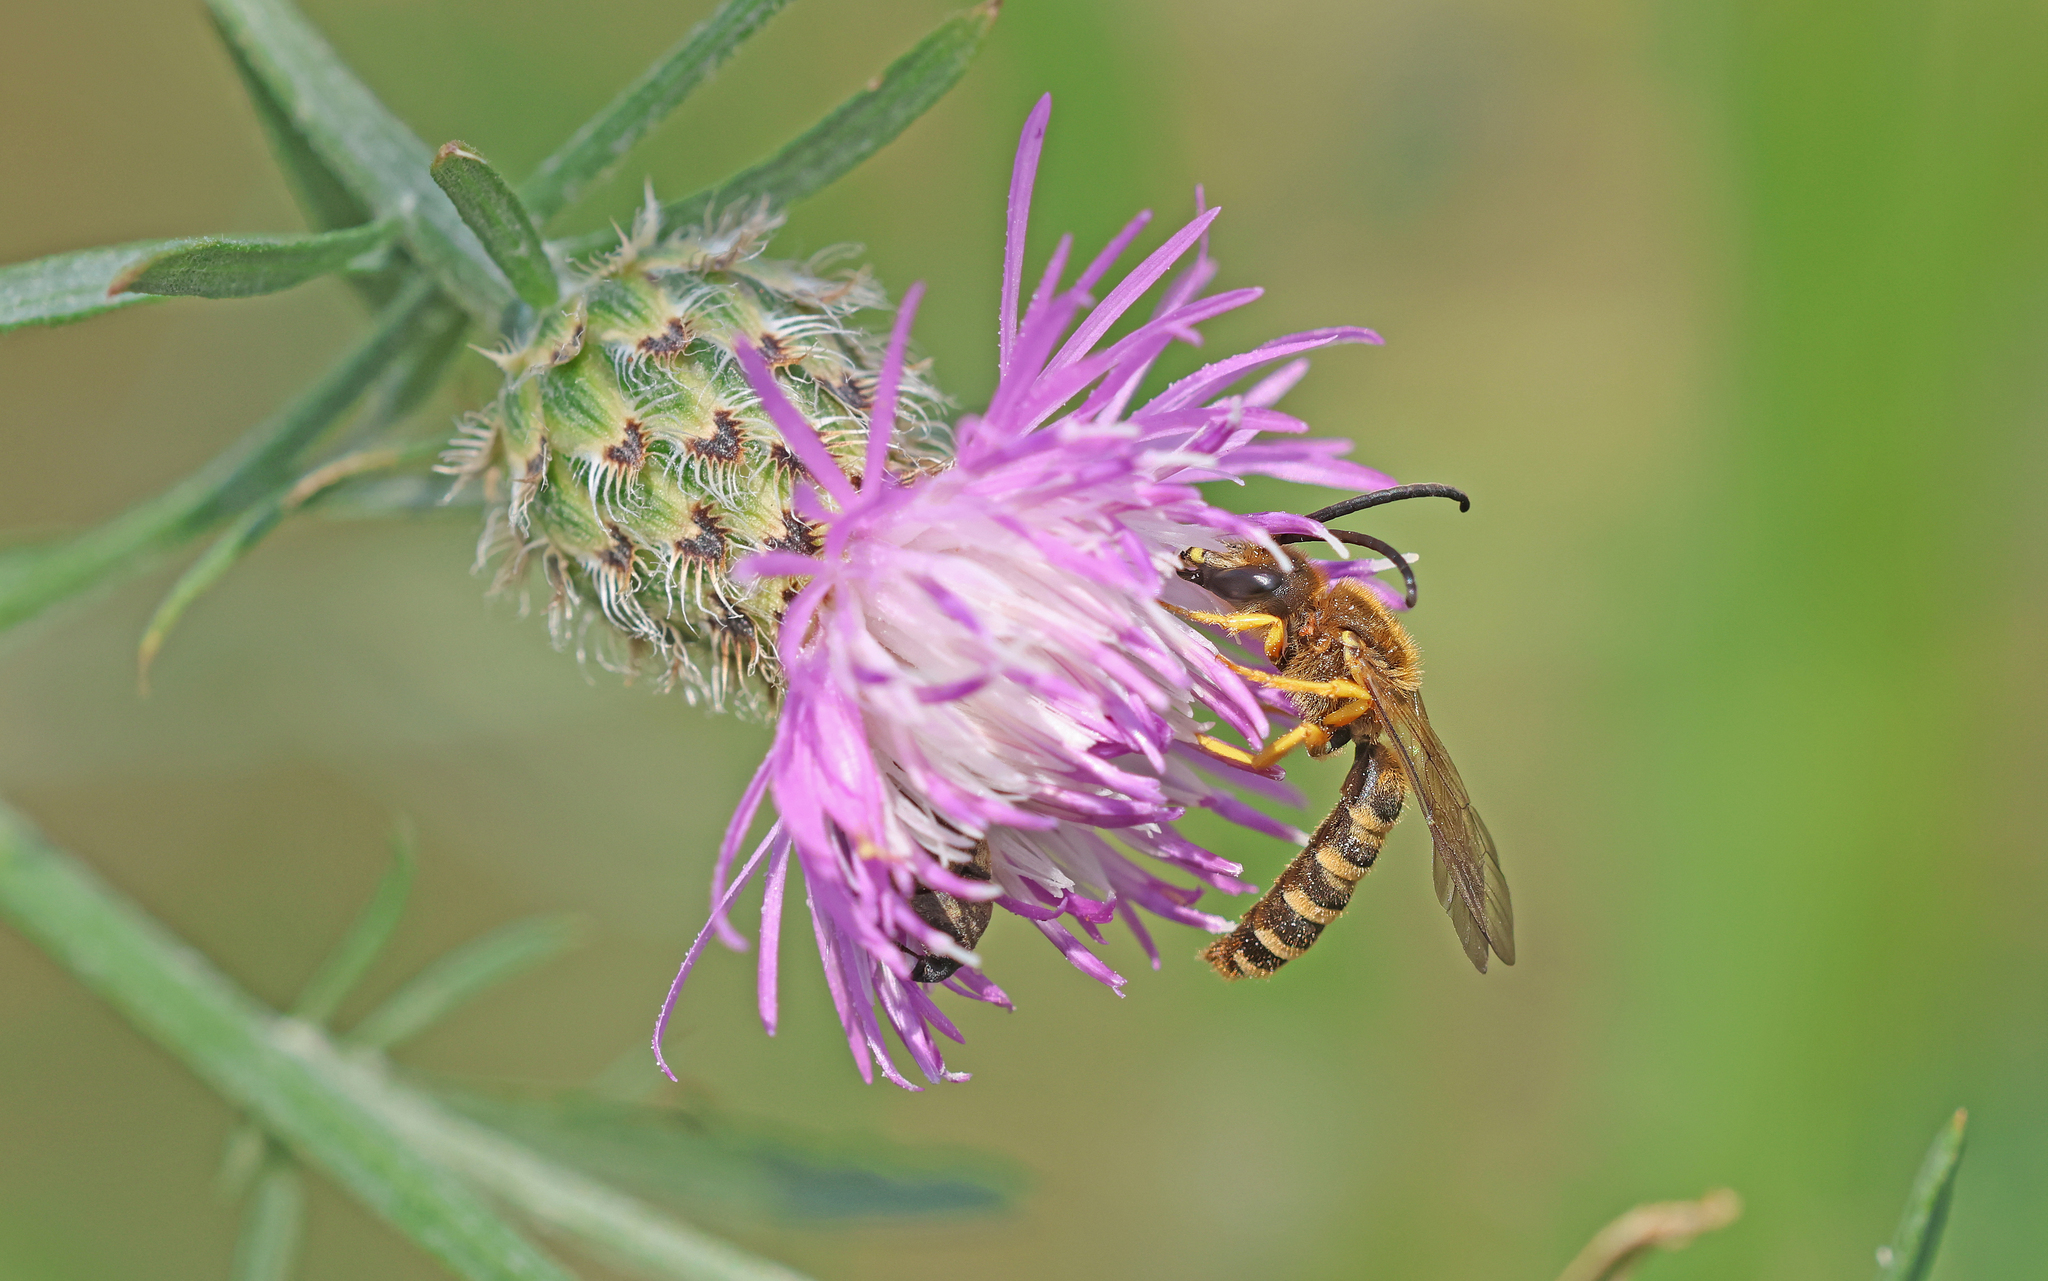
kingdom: Animalia
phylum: Arthropoda
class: Insecta
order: Hymenoptera
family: Halictidae
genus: Halictus
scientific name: Halictus scabiosae
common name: Great banded furrow bee
